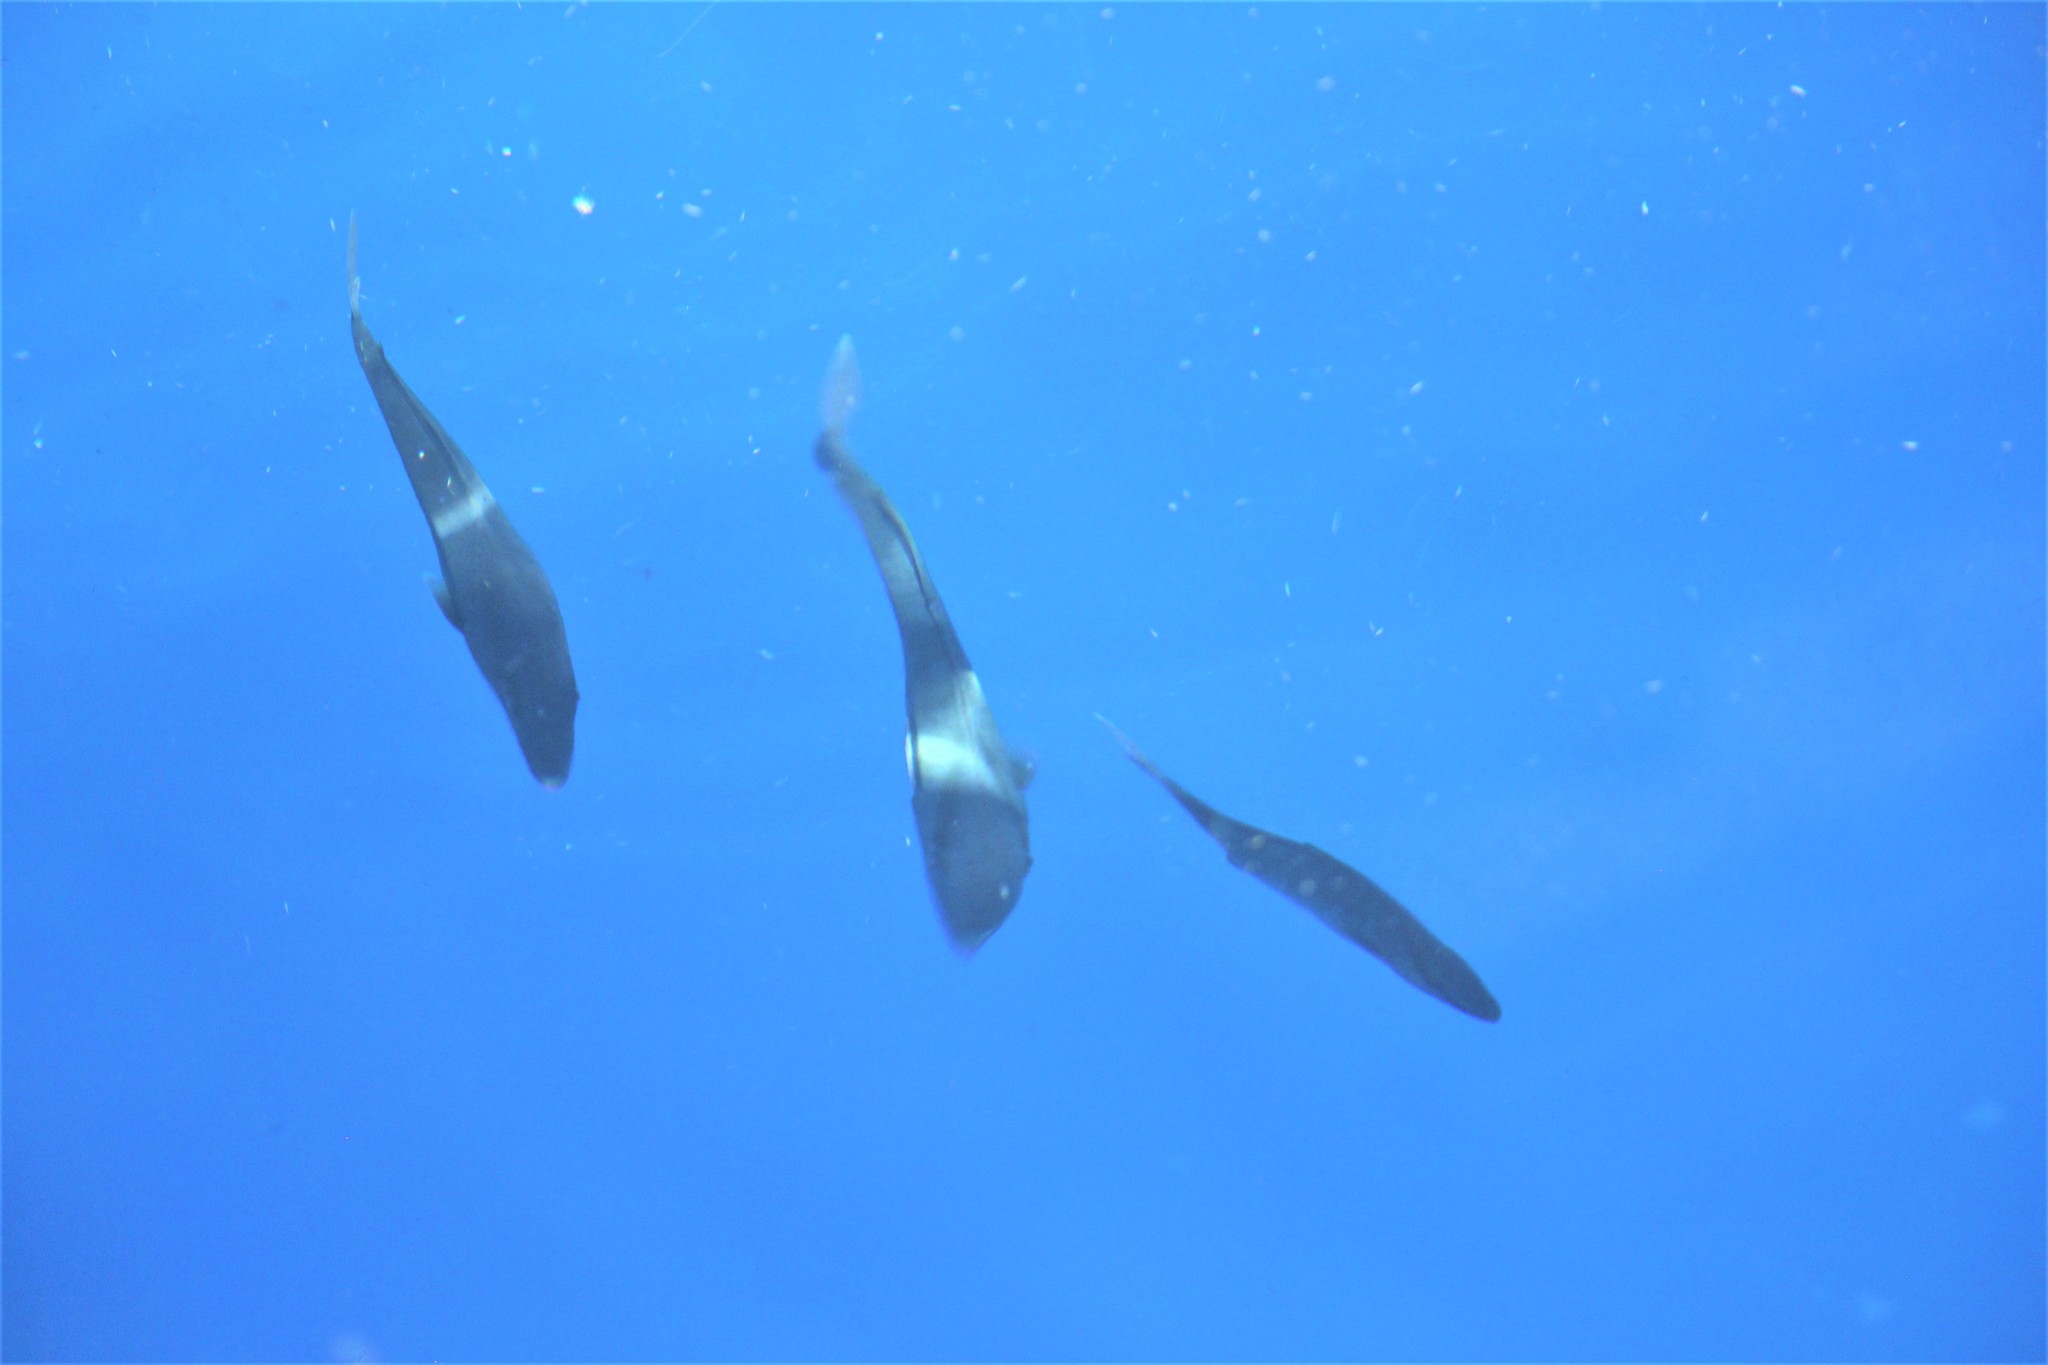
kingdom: Animalia
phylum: Chordata
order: Perciformes
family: Carangidae
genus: Seriola
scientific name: Seriola dumerili
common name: Greater amberjack
